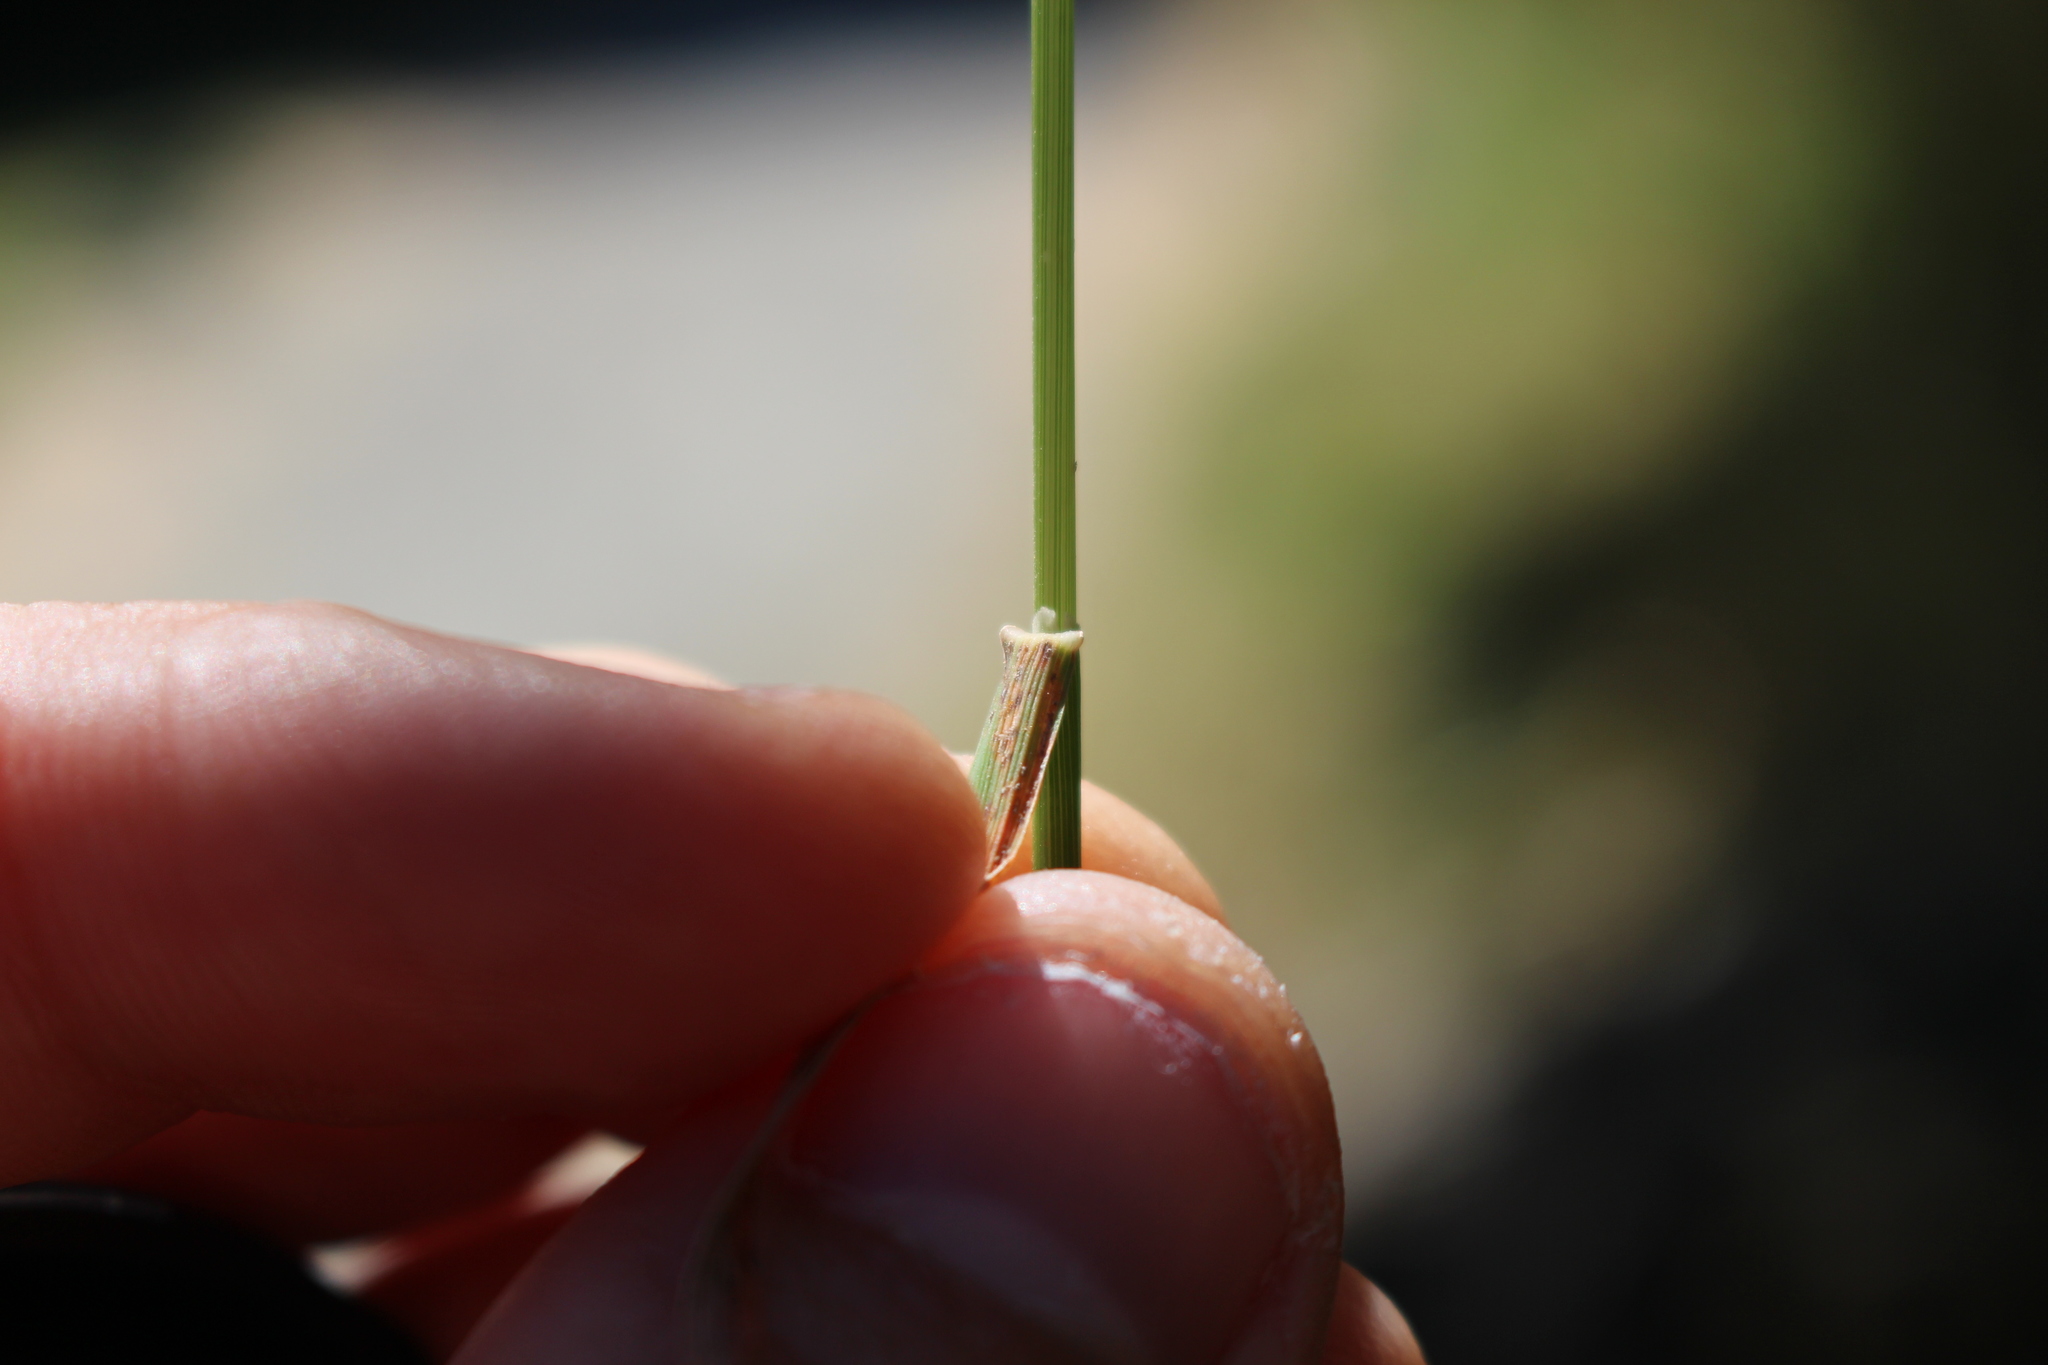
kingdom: Plantae
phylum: Tracheophyta
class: Liliopsida
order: Poales
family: Poaceae
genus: Dichelachne
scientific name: Dichelachne crinita
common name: Clovenfoot plumegrass
